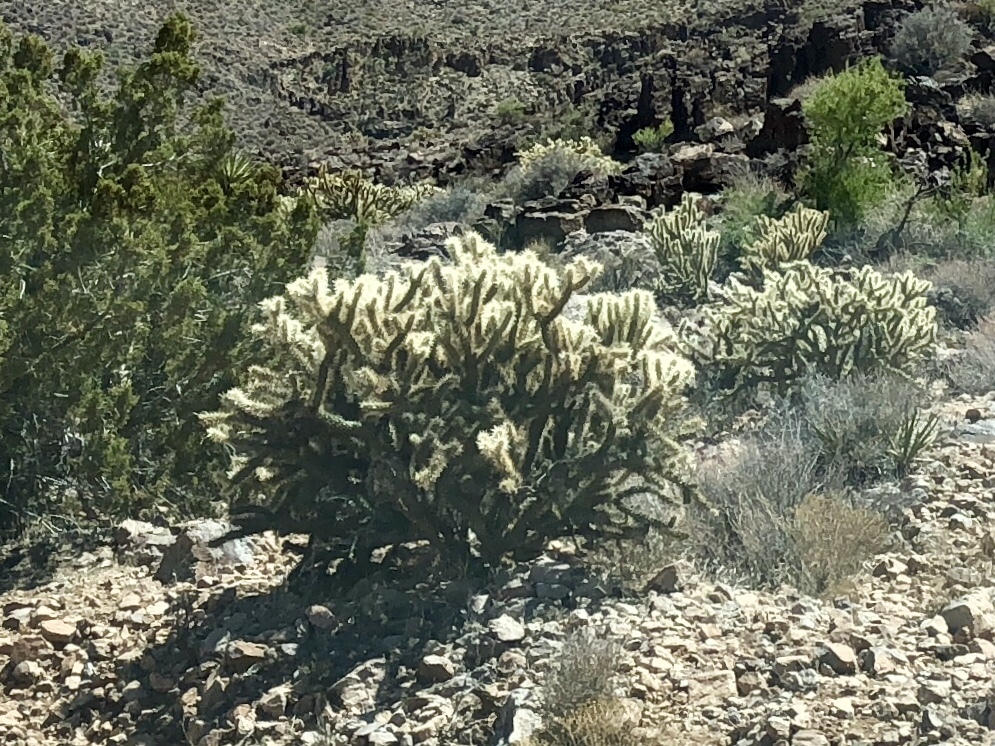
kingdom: Plantae
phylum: Tracheophyta
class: Magnoliopsida
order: Caryophyllales
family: Cactaceae
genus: Cylindropuntia
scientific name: Cylindropuntia acanthocarpa
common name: Buckhorn cholla
